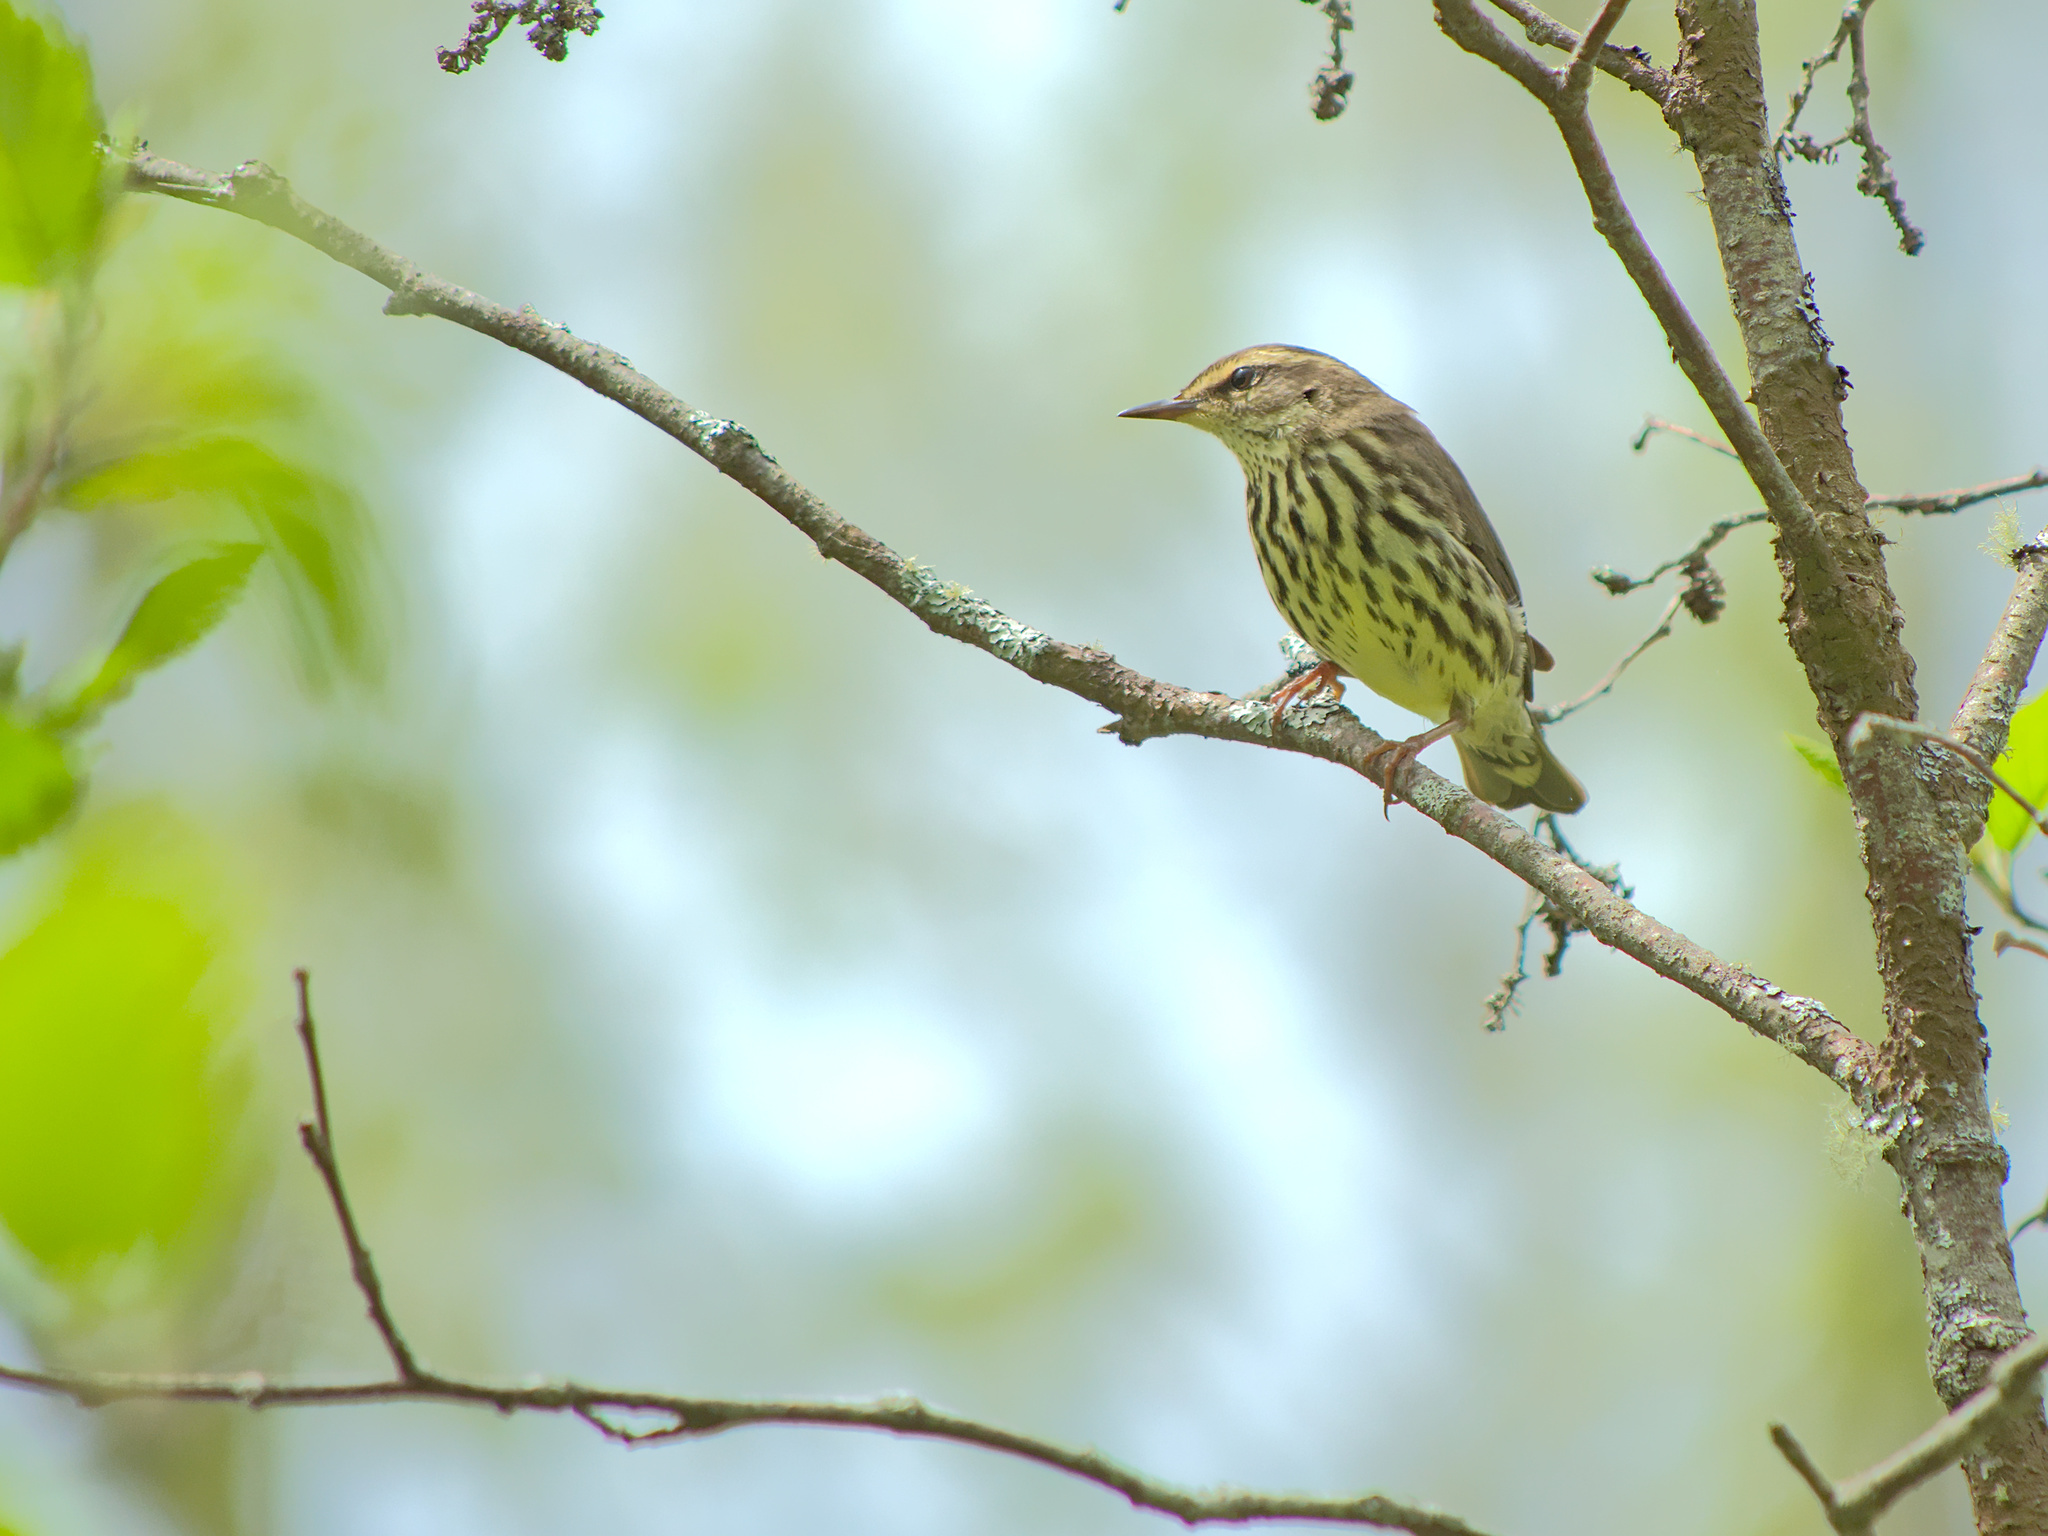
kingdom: Animalia
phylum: Chordata
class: Aves
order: Passeriformes
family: Parulidae
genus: Parkesia
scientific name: Parkesia noveboracensis
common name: Northern waterthrush
